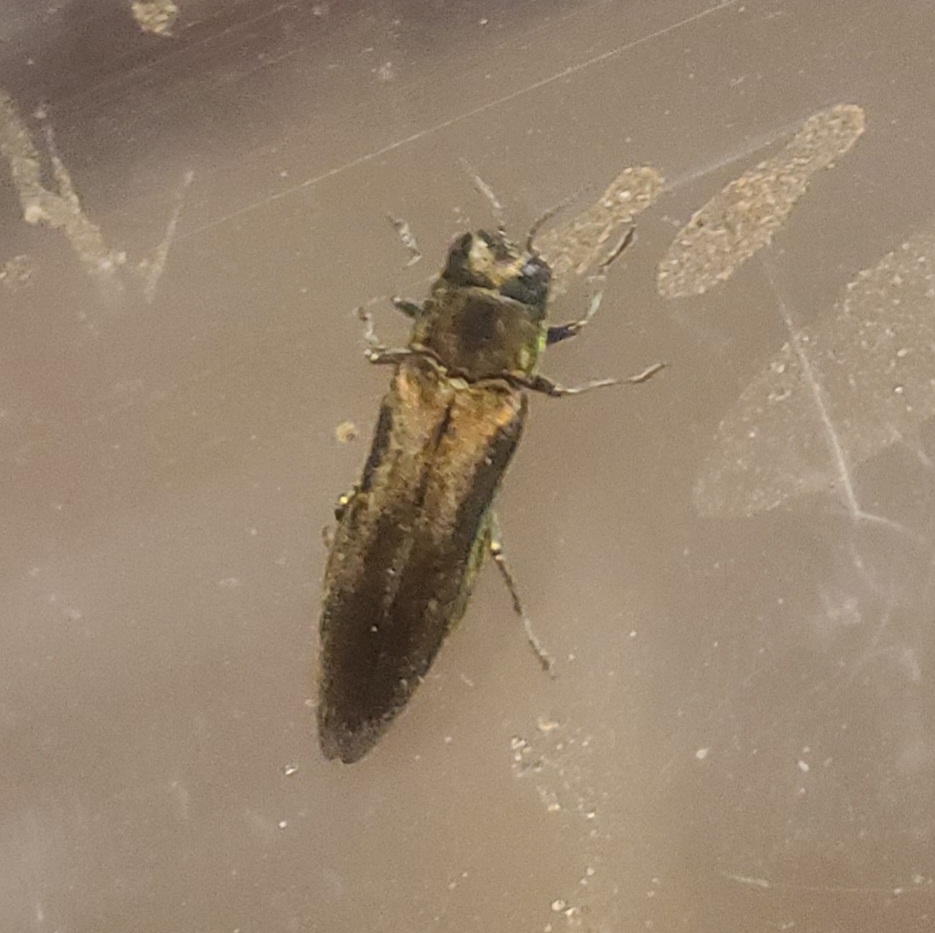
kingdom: Animalia
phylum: Arthropoda
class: Insecta
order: Coleoptera
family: Buprestidae
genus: Agrilus
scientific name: Agrilus planipennis
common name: Emerald ash borer
